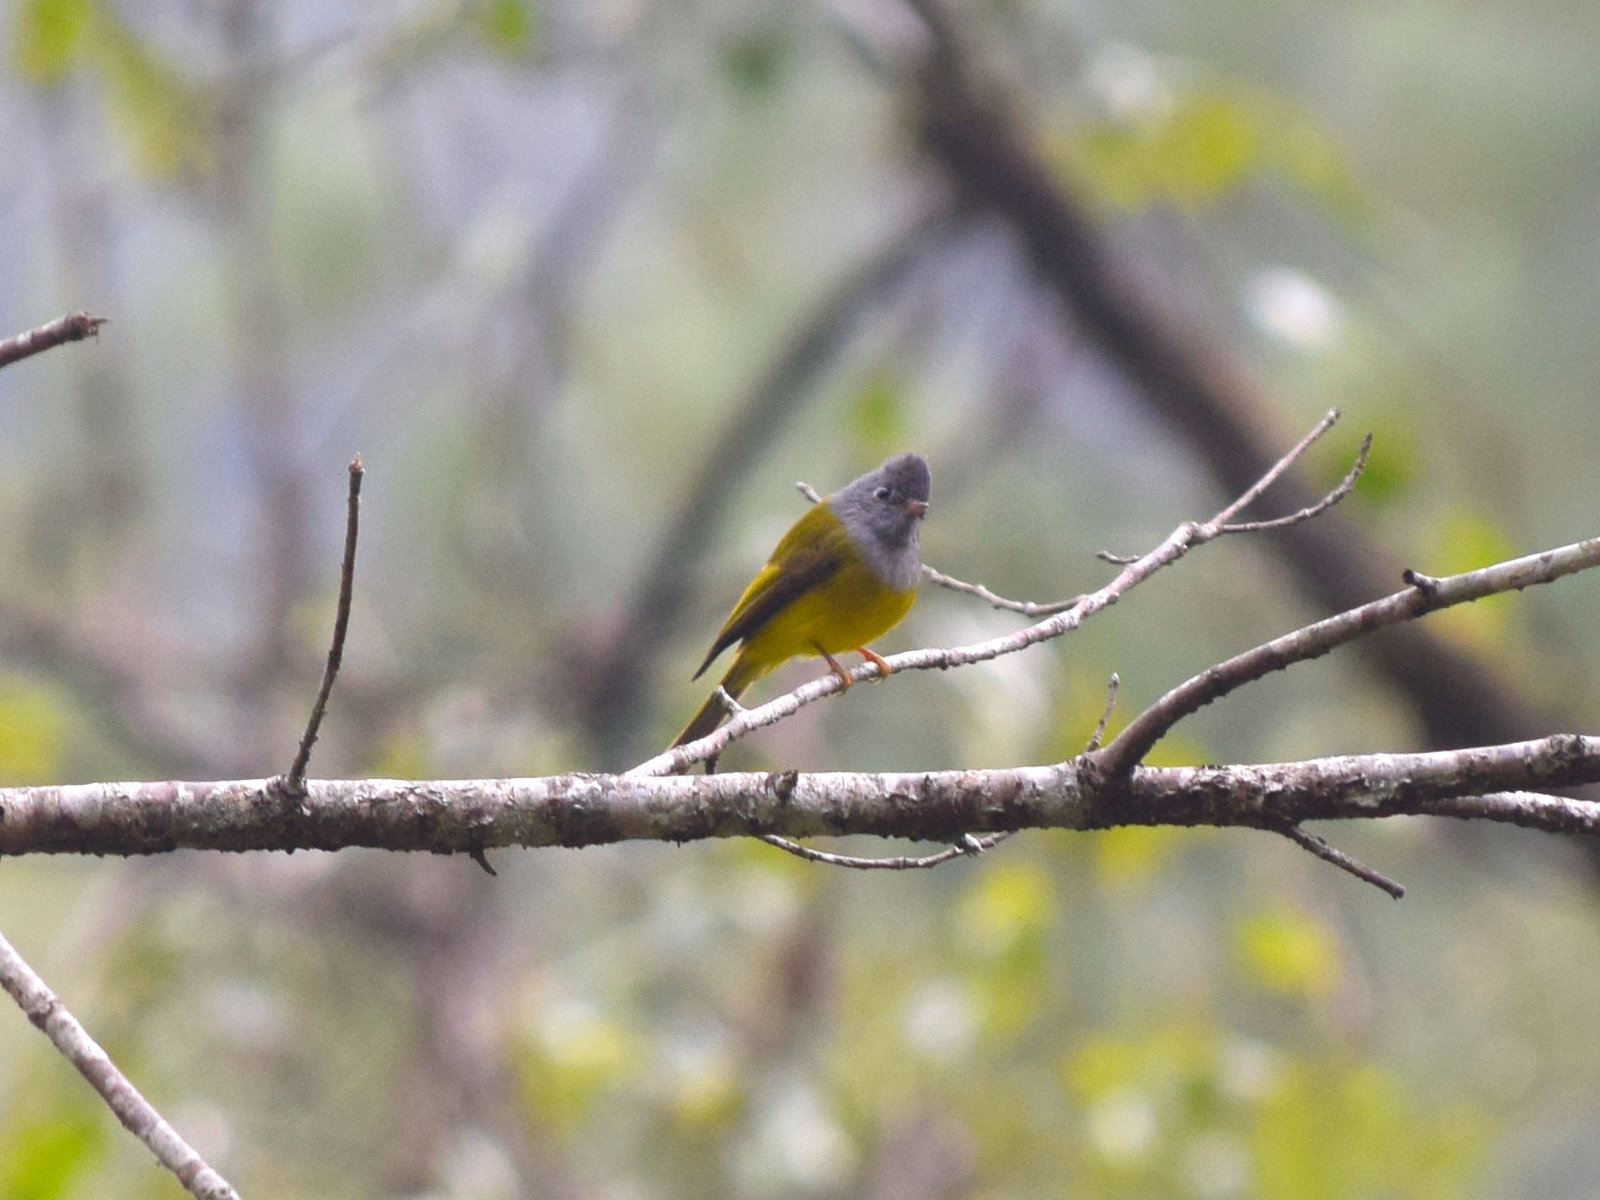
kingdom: Animalia
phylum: Chordata
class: Aves
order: Passeriformes
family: Stenostiridae
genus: Culicicapa
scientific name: Culicicapa ceylonensis
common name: Grey-headed canary-flycatcher
